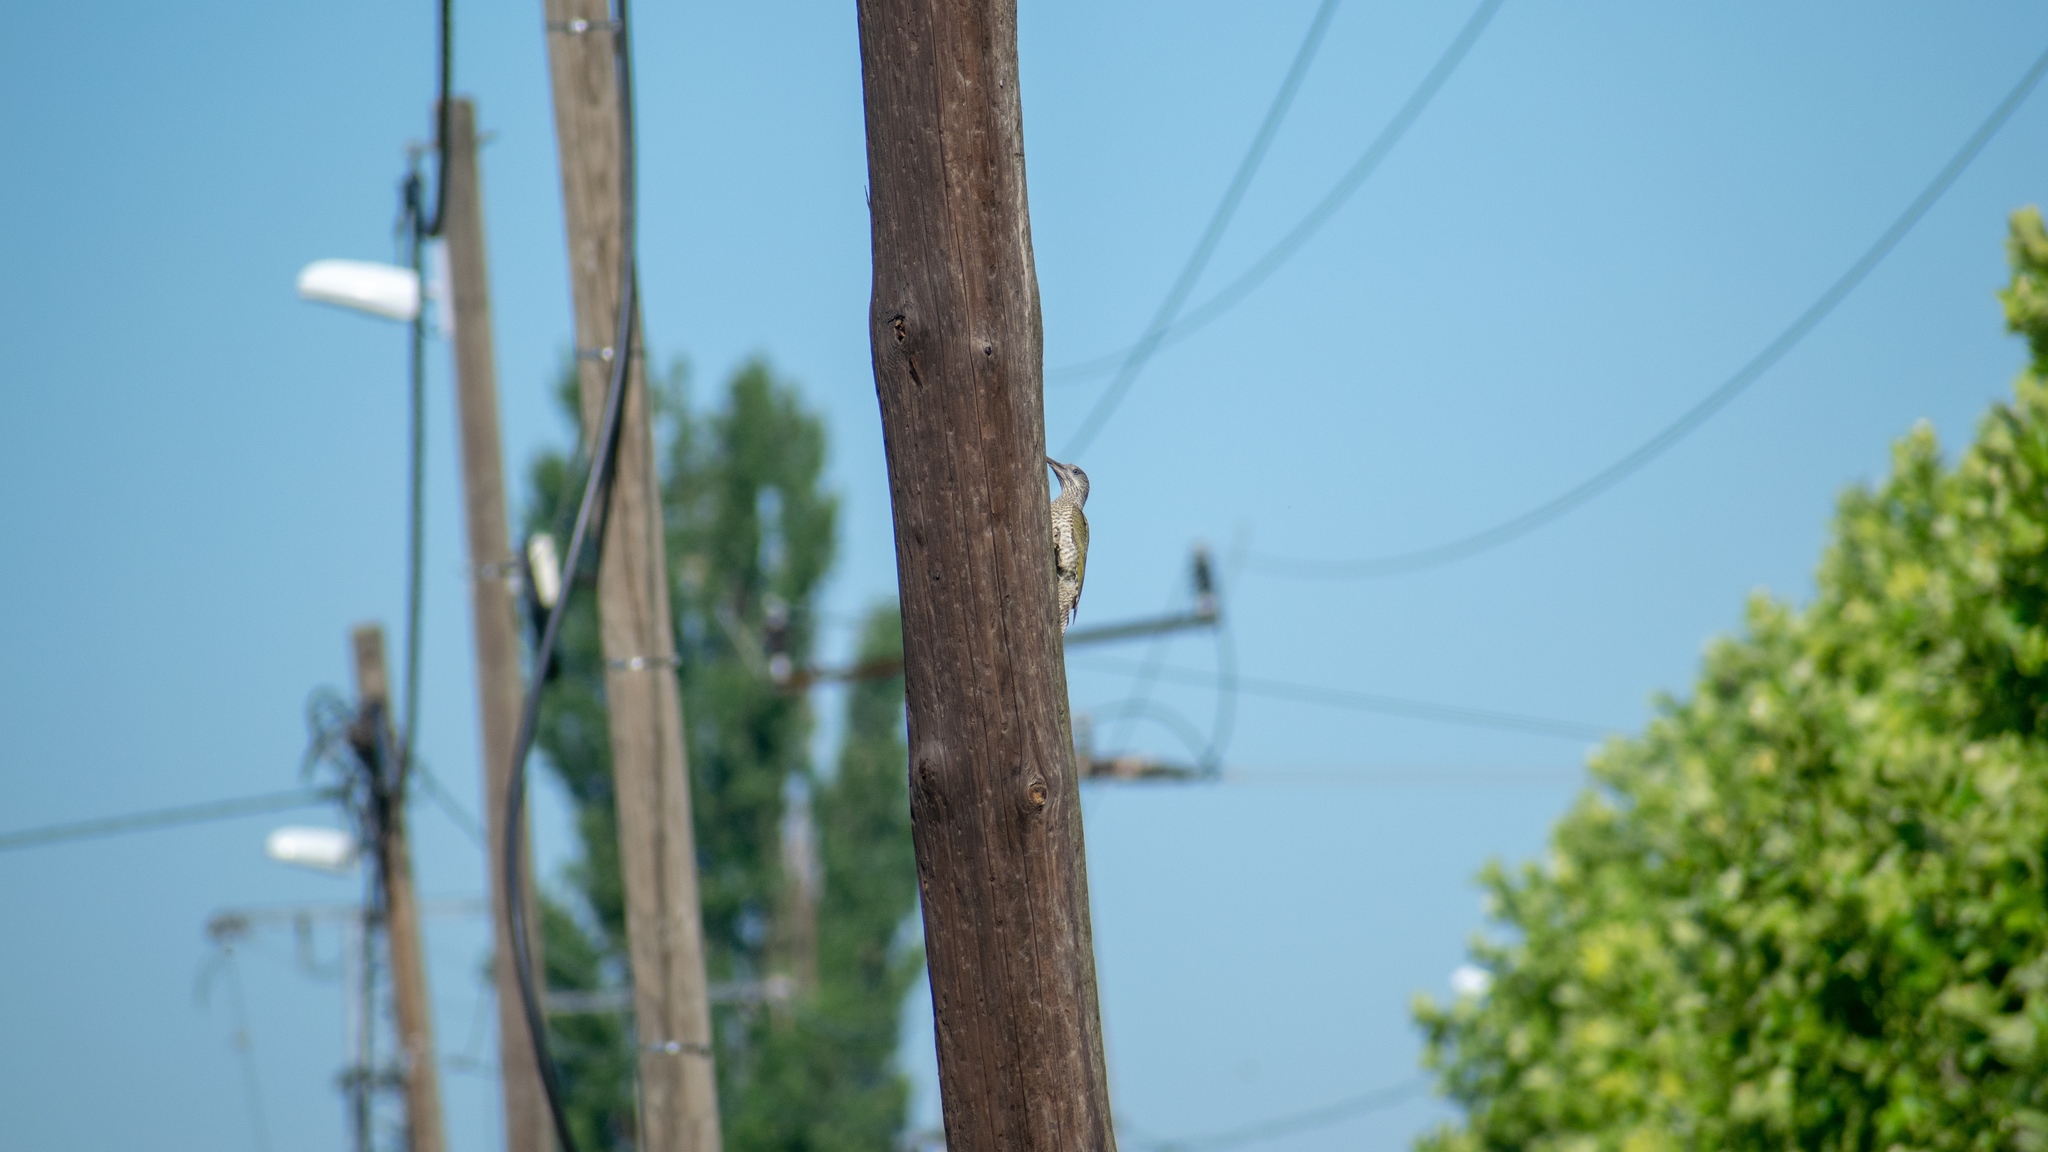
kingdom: Animalia
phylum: Chordata
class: Aves
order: Piciformes
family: Picidae
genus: Picus
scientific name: Picus viridis
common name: European green woodpecker
